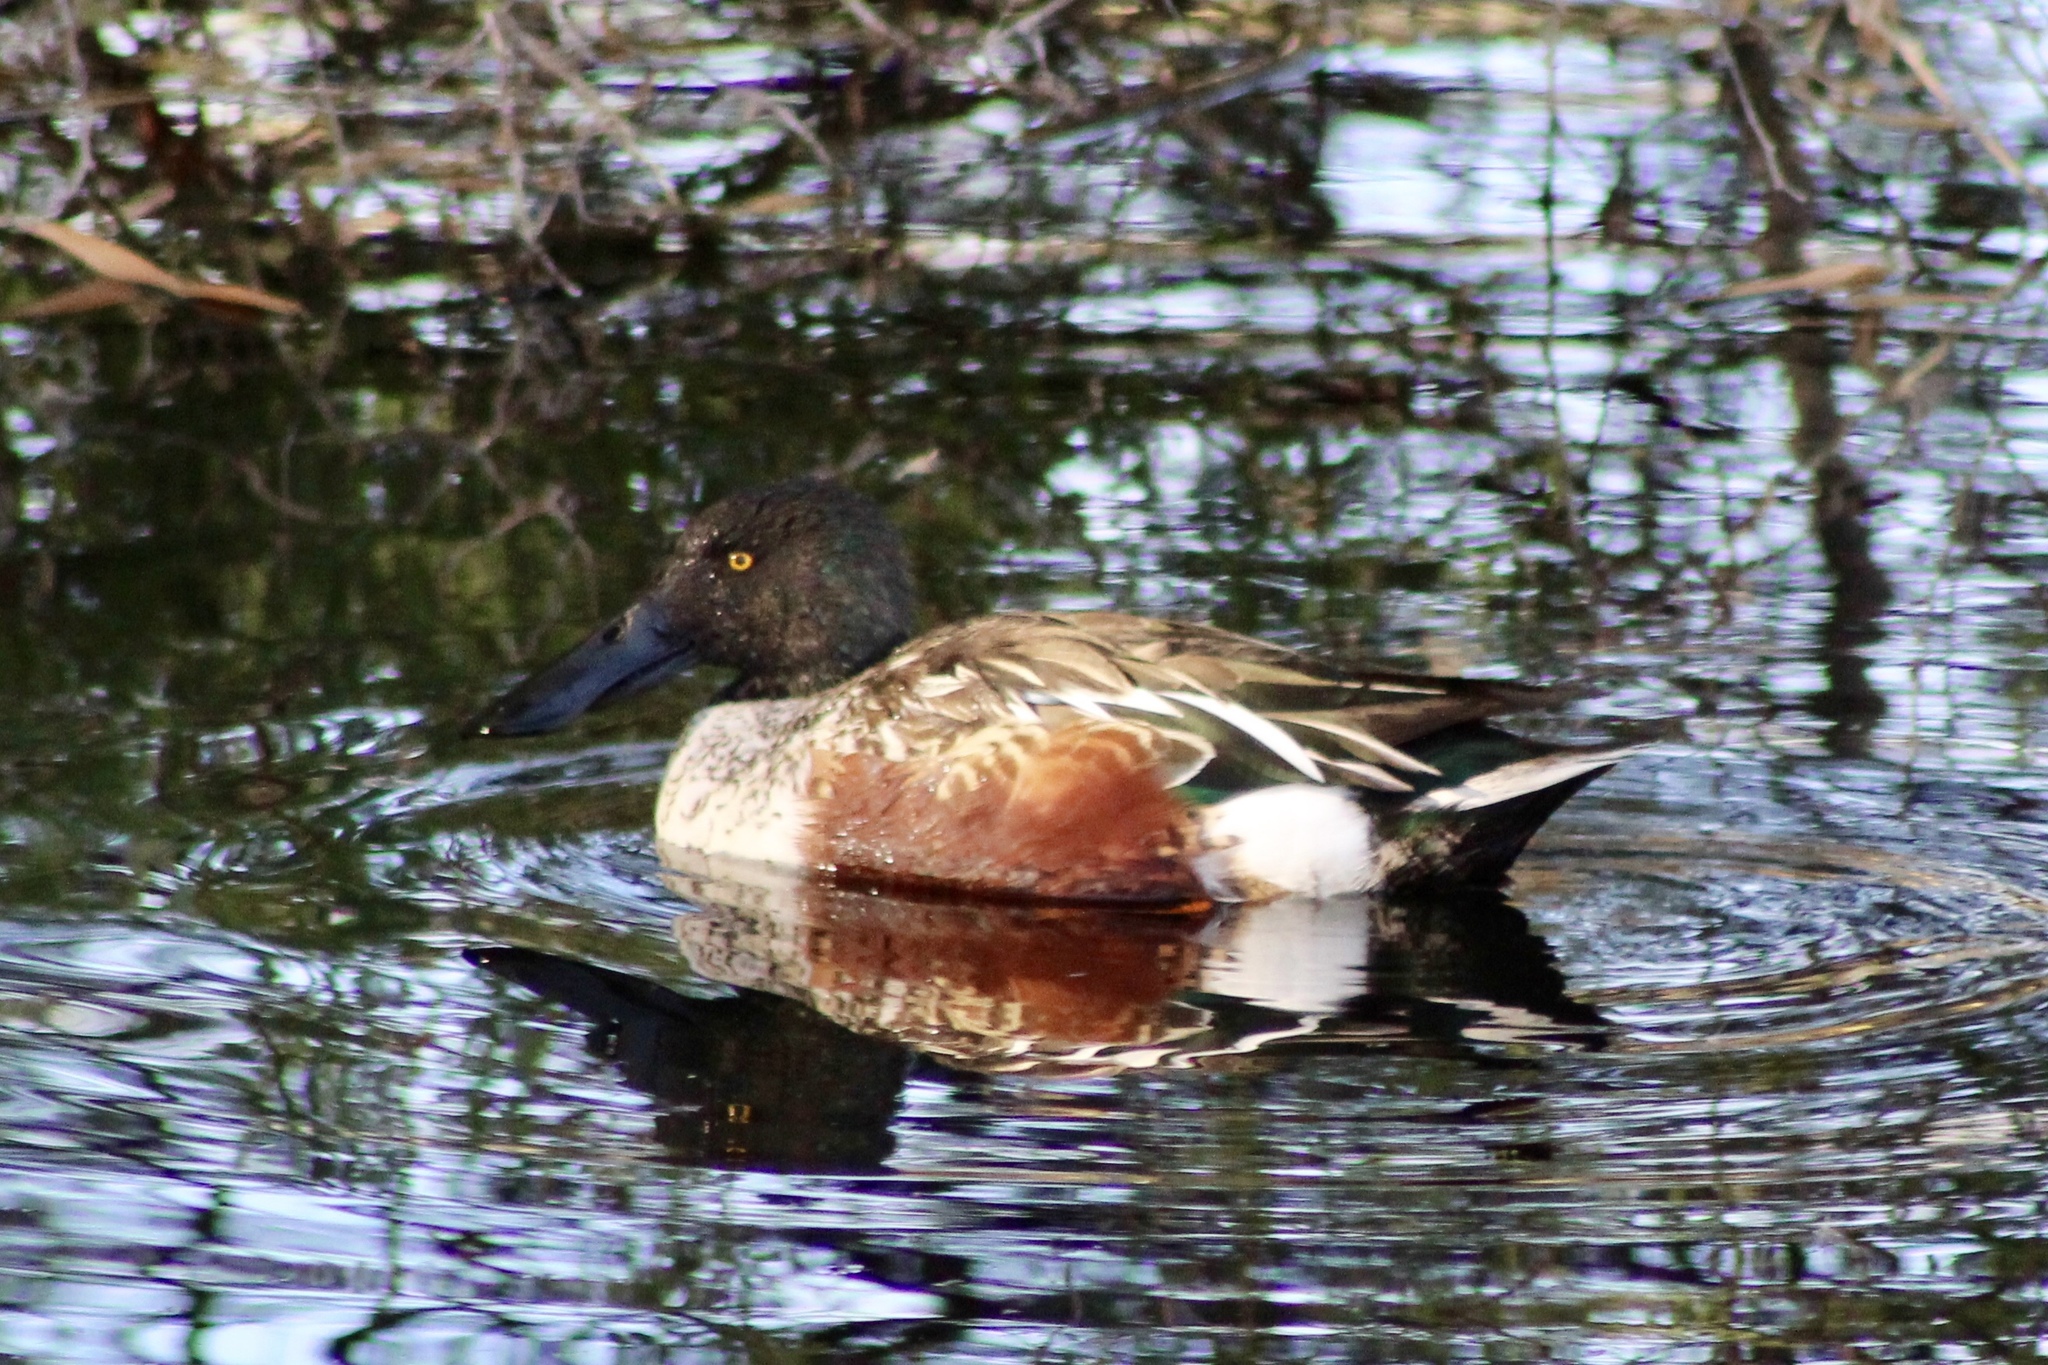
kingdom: Animalia
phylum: Chordata
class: Aves
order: Anseriformes
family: Anatidae
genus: Spatula
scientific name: Spatula clypeata
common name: Northern shoveler
